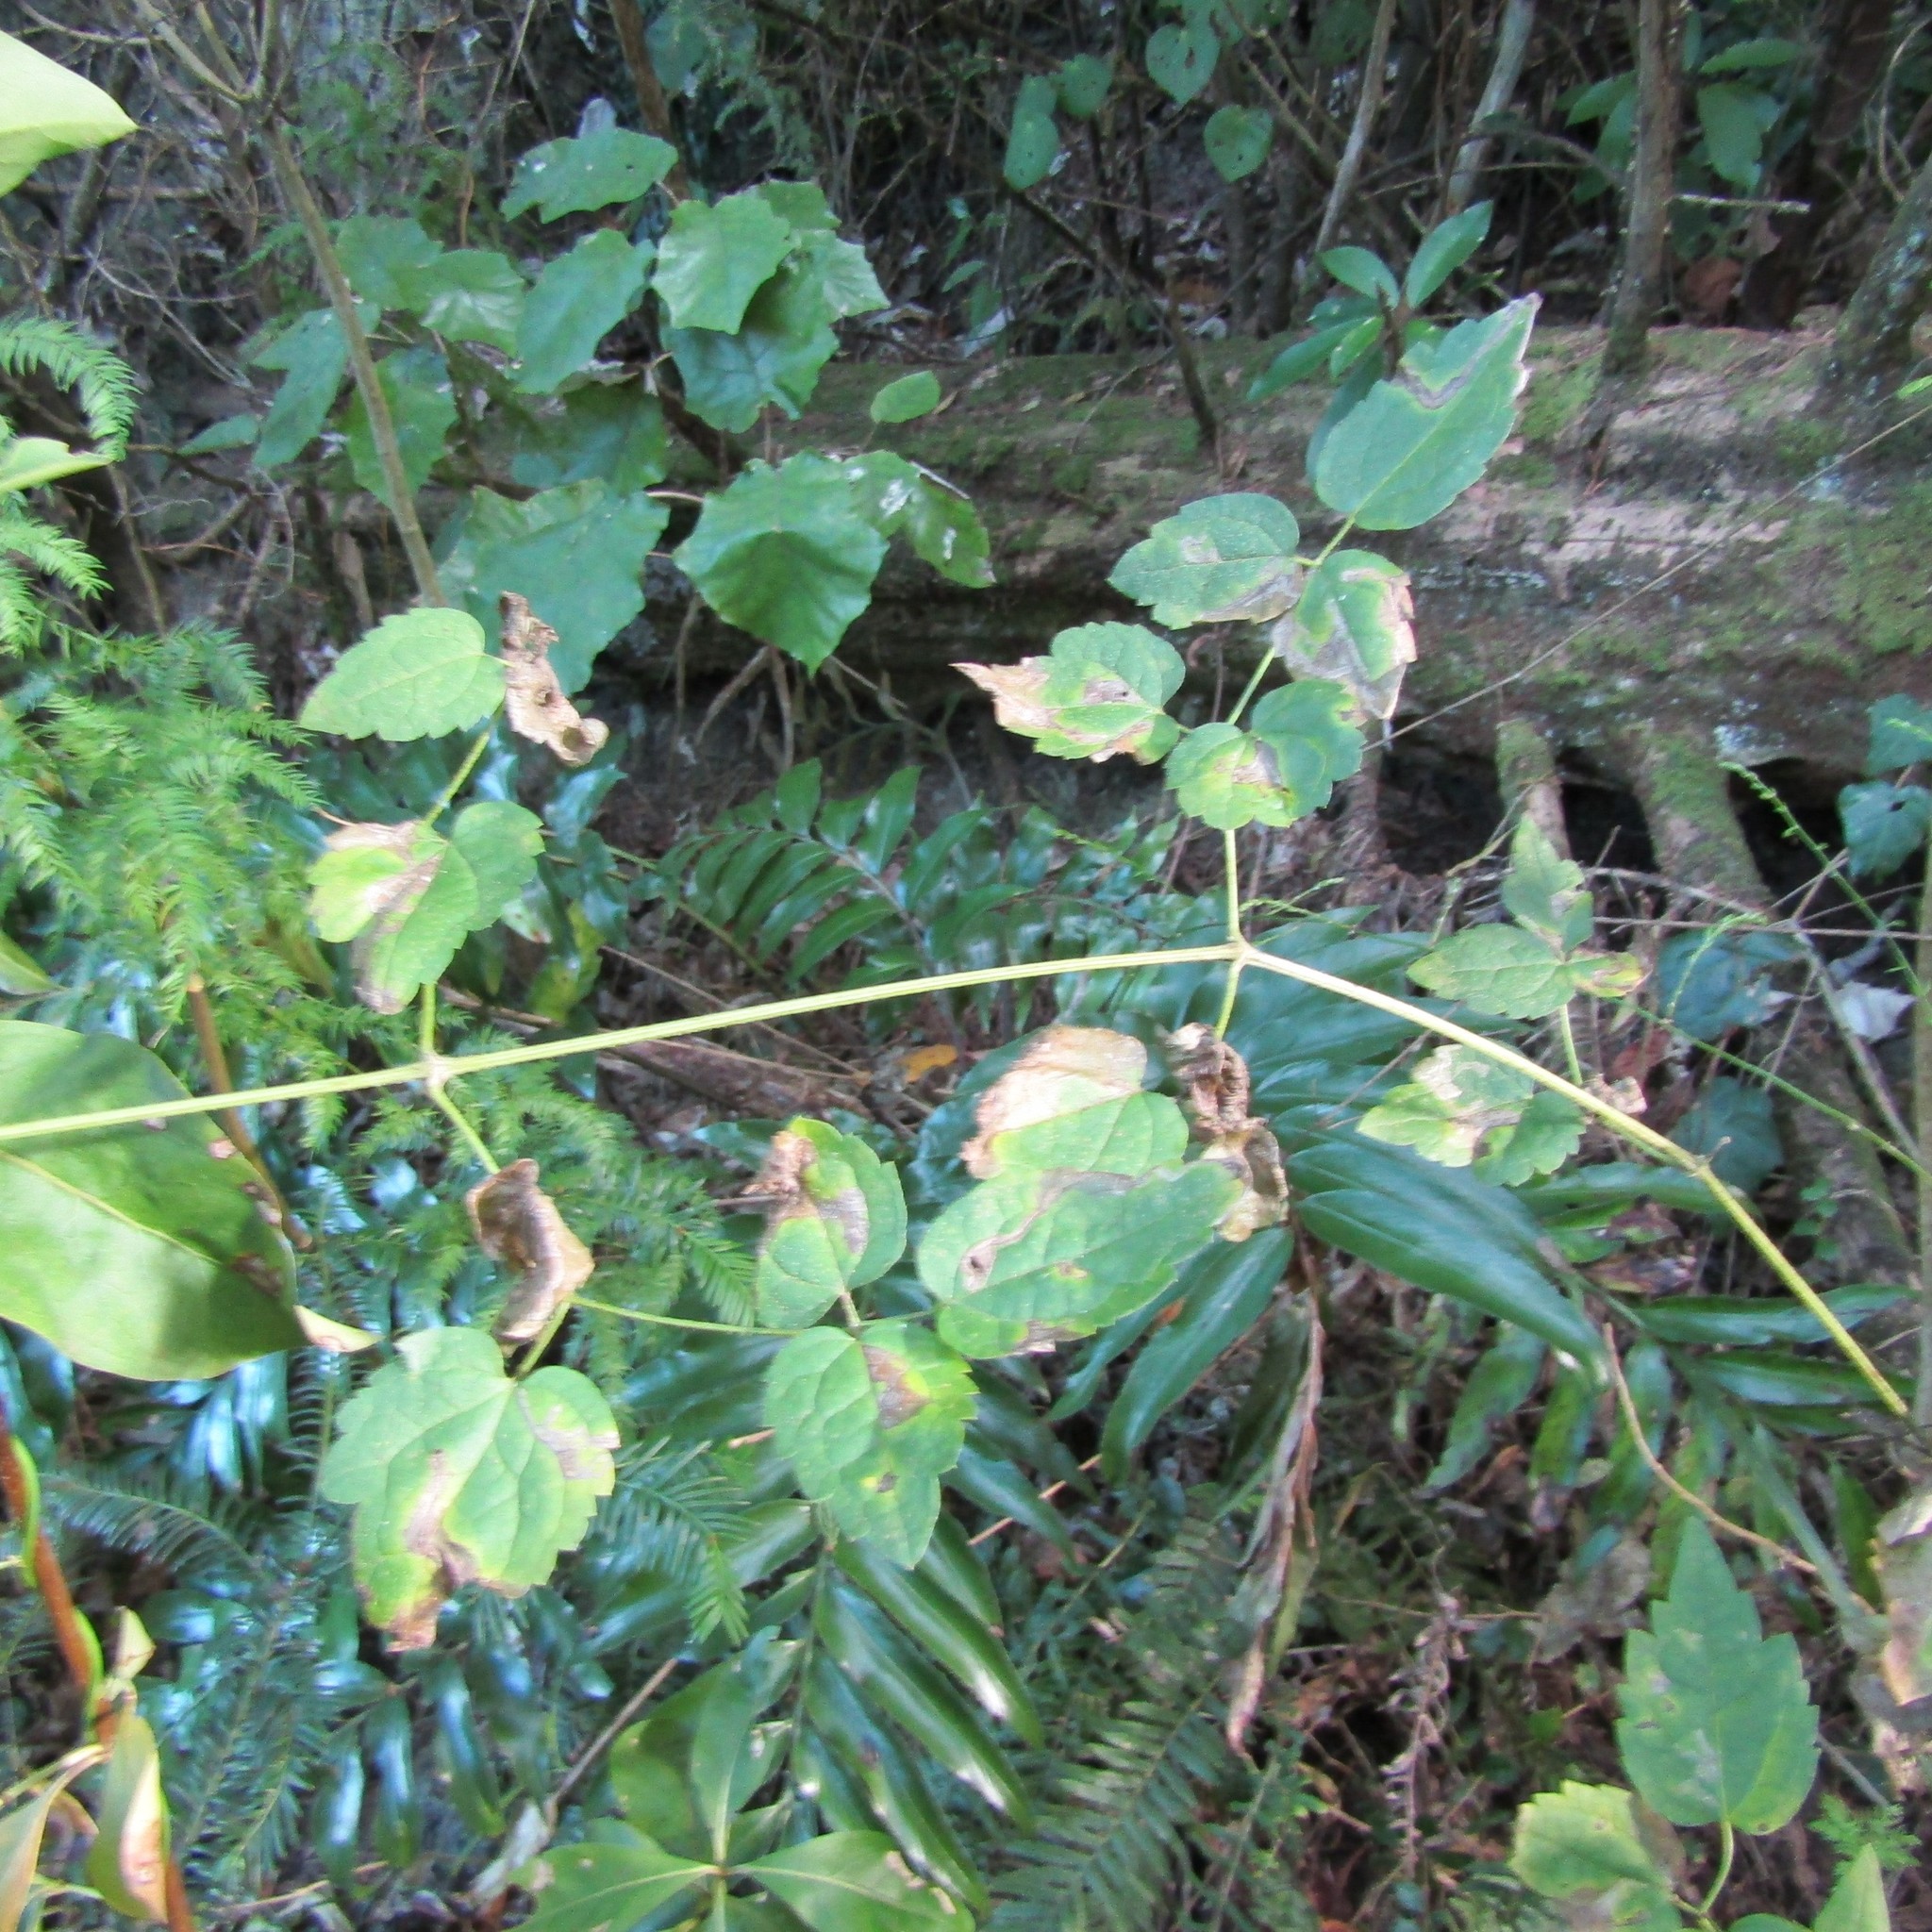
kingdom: Plantae
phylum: Tracheophyta
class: Magnoliopsida
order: Ranunculales
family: Ranunculaceae
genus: Clematis
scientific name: Clematis vitalba
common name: Evergreen clematis
